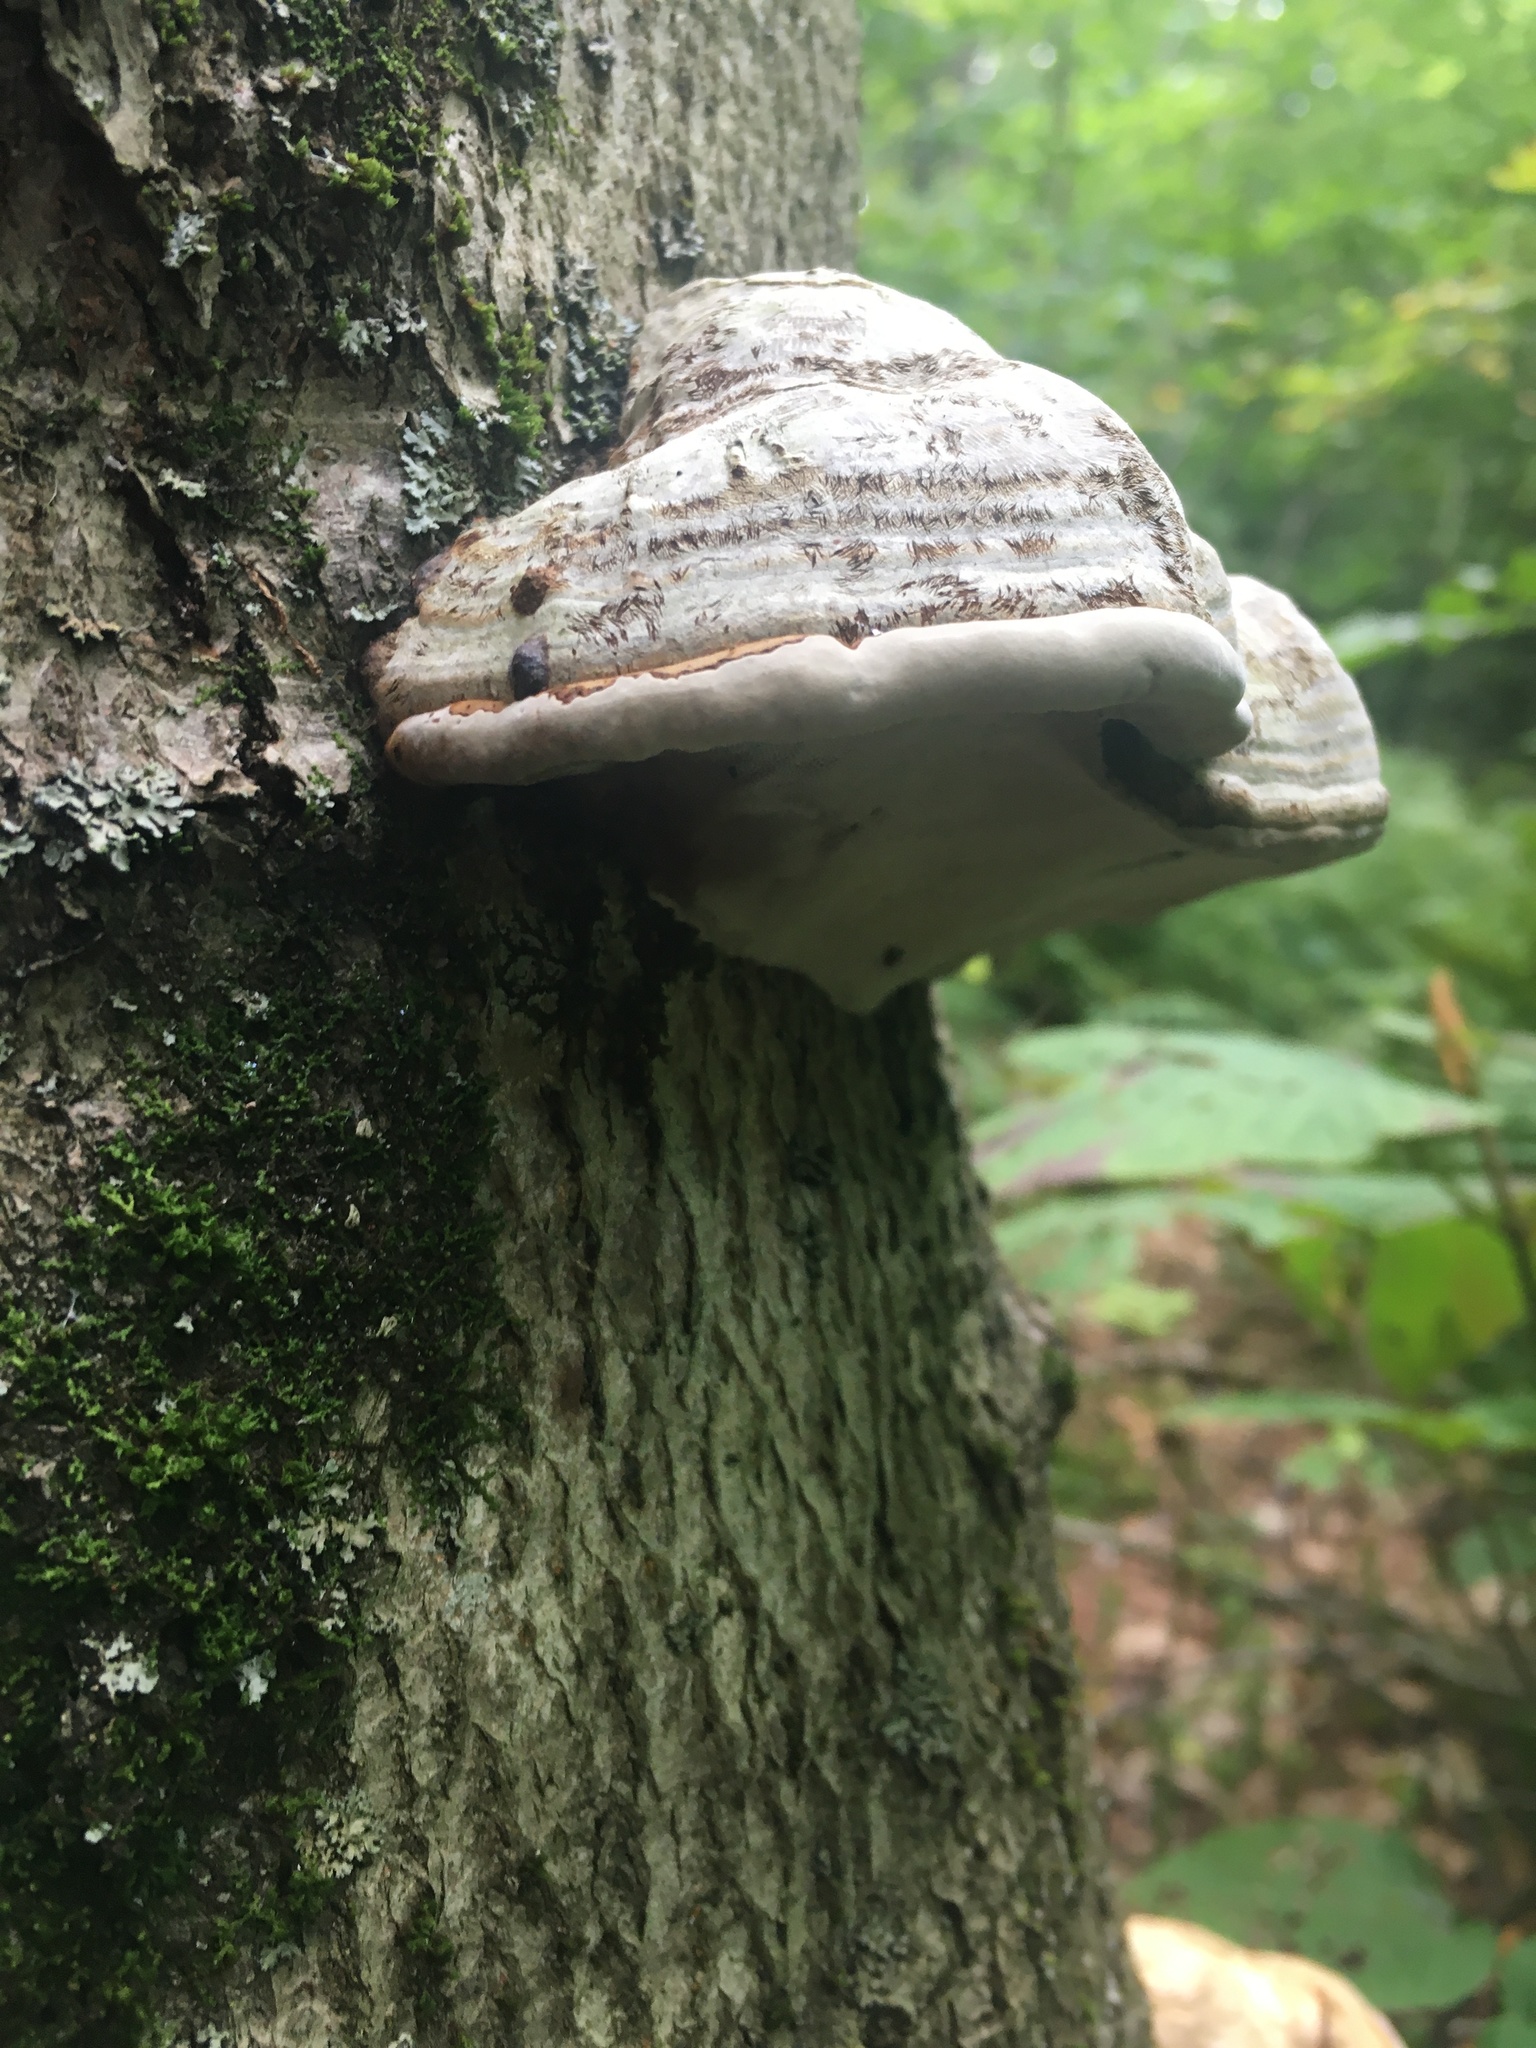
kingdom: Fungi
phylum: Basidiomycota
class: Agaricomycetes
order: Polyporales
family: Polyporaceae
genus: Fomes
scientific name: Fomes fomentarius
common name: Hoof fungus
